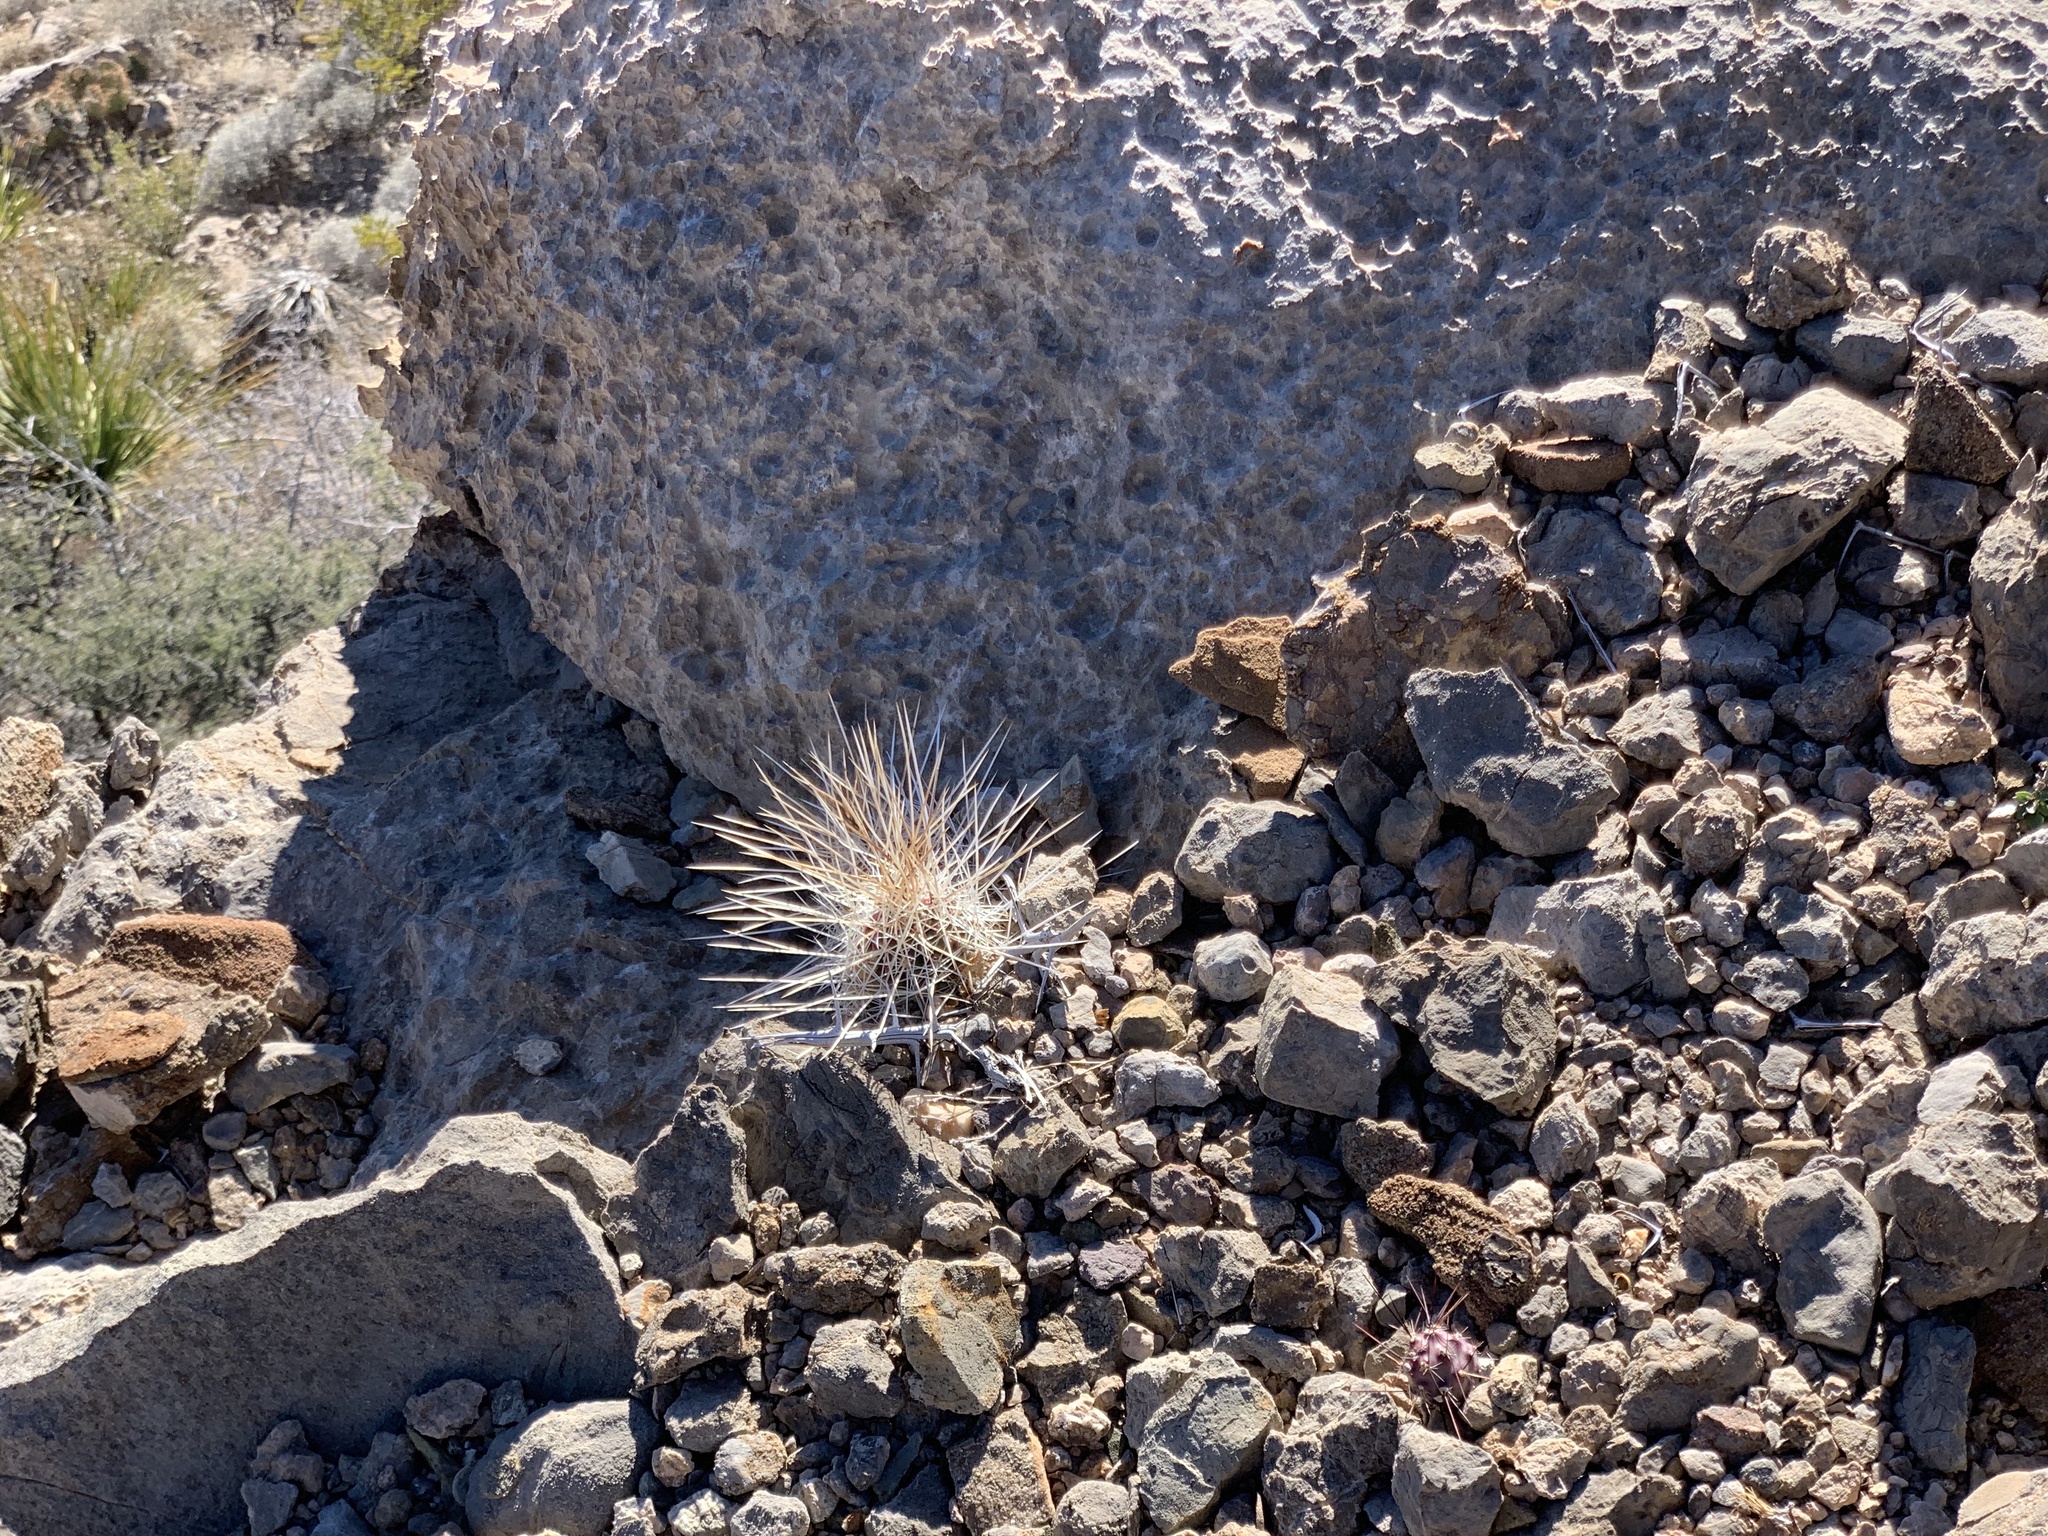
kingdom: Plantae
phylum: Tracheophyta
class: Magnoliopsida
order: Caryophyllales
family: Cactaceae
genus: Echinocereus
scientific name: Echinocereus stramineus
